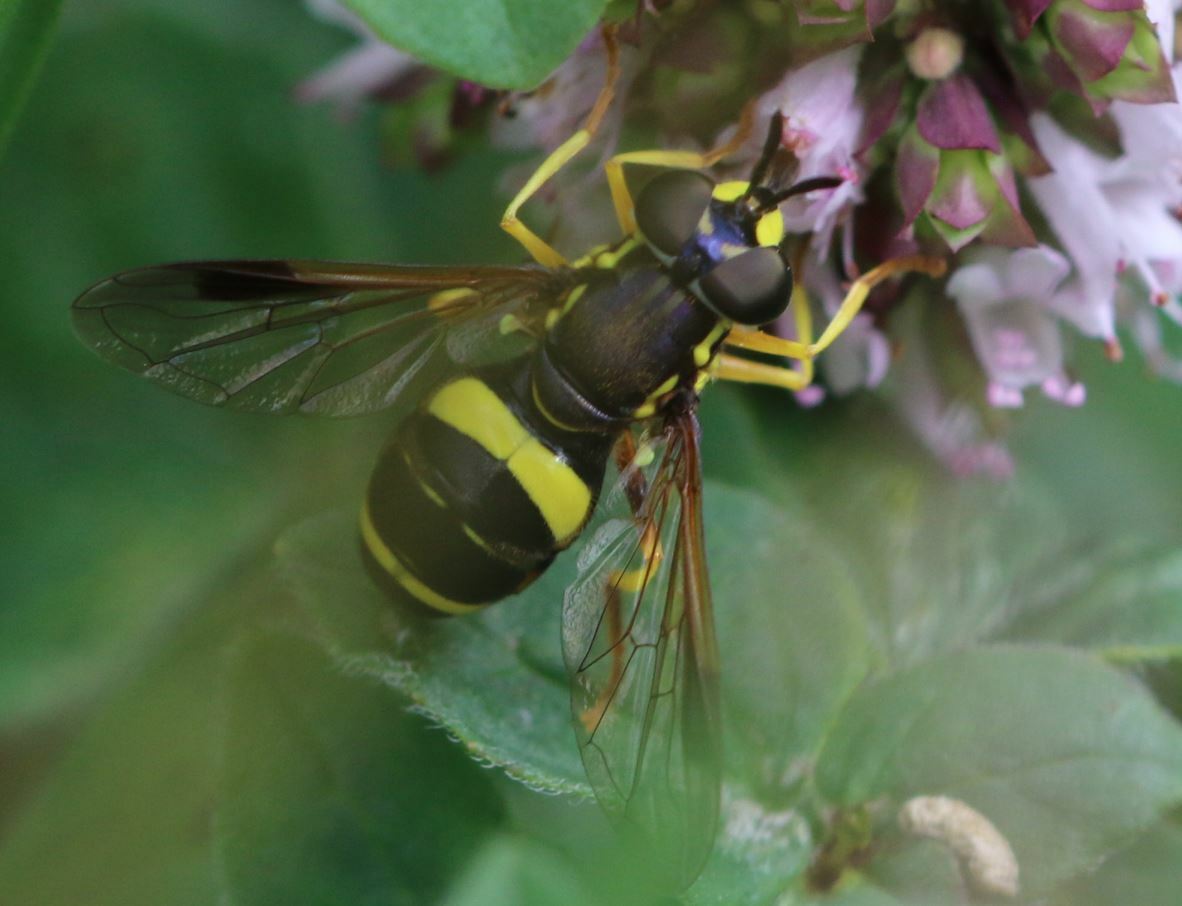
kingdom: Animalia
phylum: Arthropoda
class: Insecta
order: Diptera
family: Syrphidae
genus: Chrysotoxum
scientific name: Chrysotoxum bicincta
